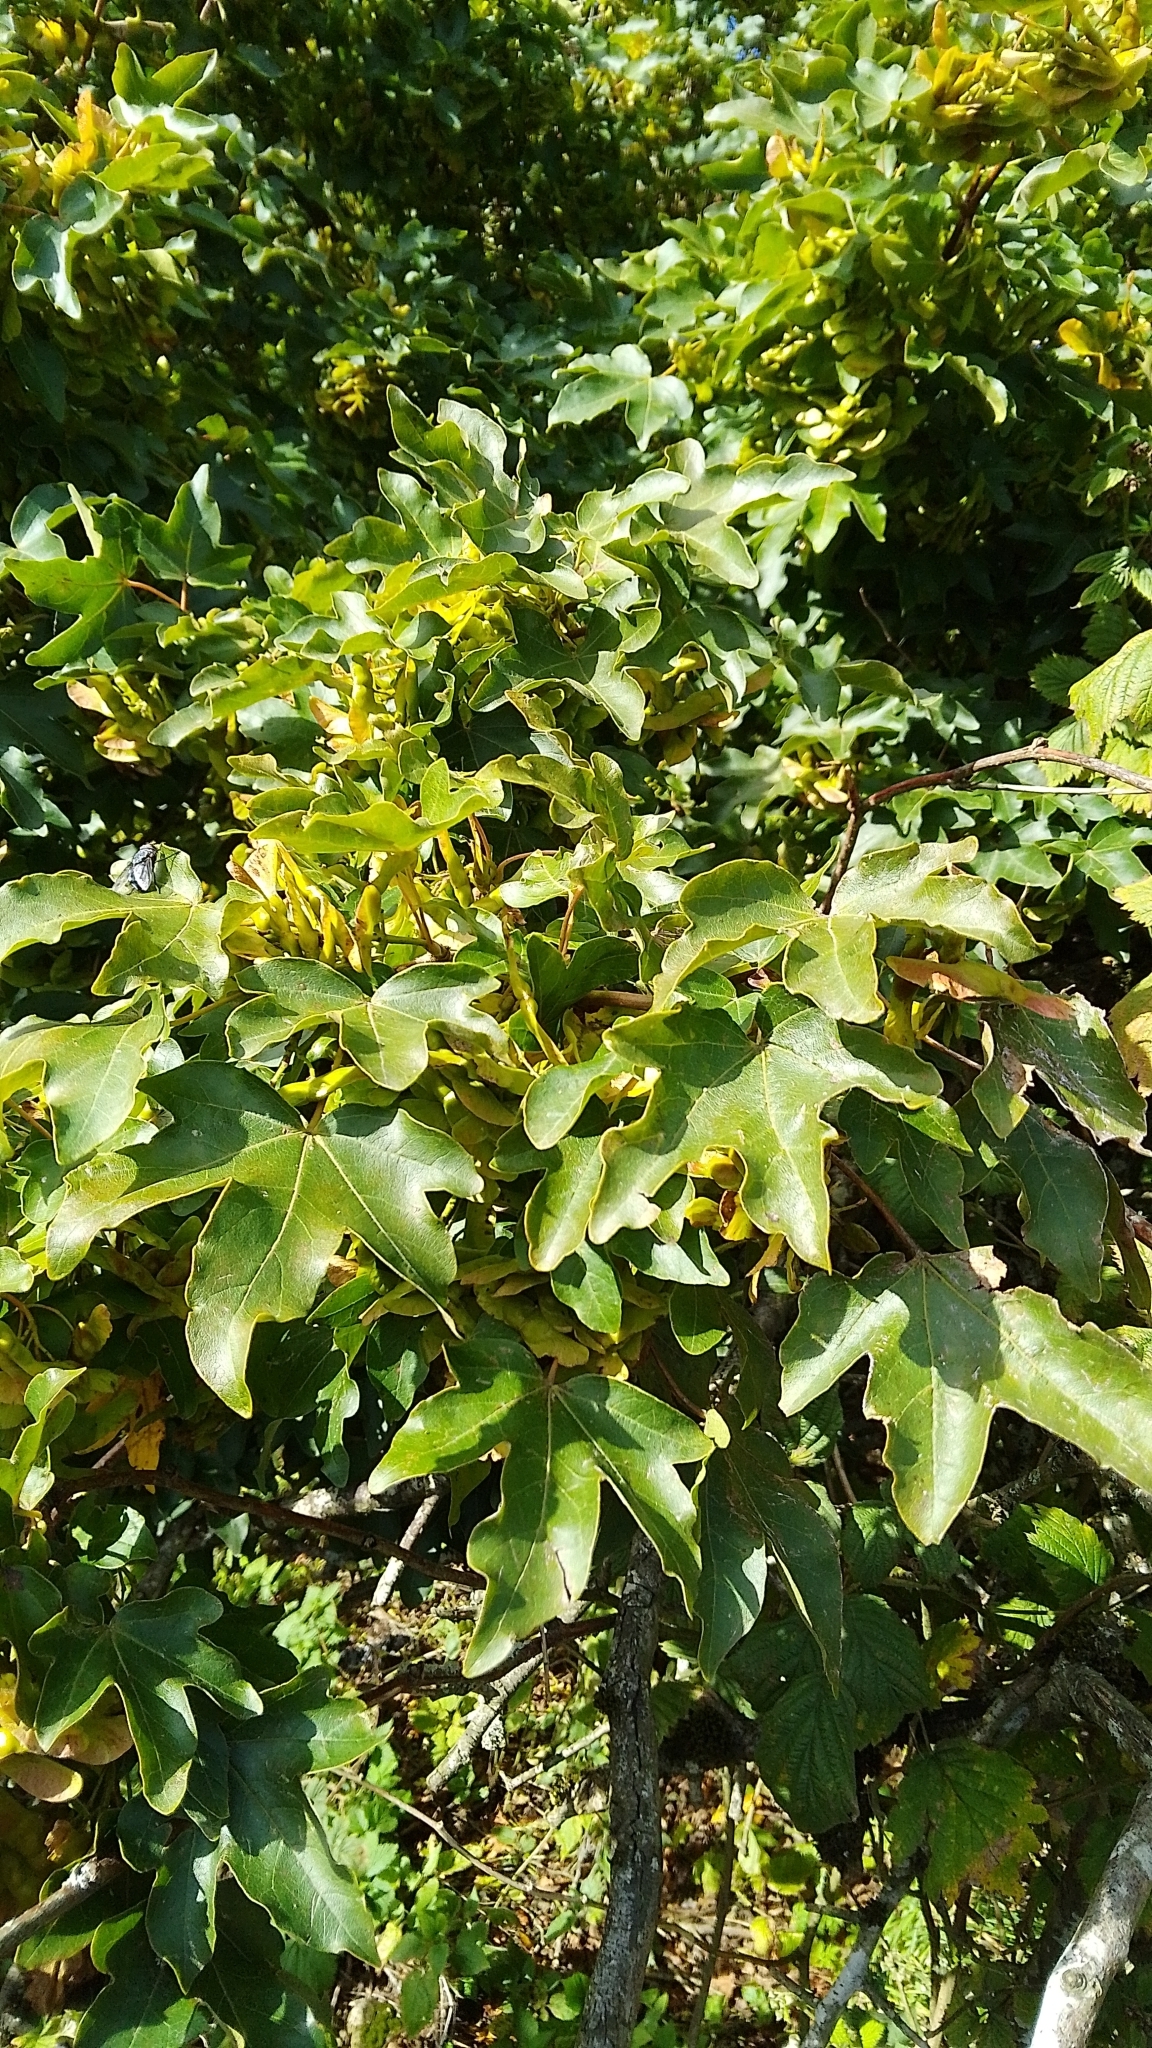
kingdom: Plantae
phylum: Tracheophyta
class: Magnoliopsida
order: Sapindales
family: Sapindaceae
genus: Acer
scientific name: Acer campestre
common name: Field maple
